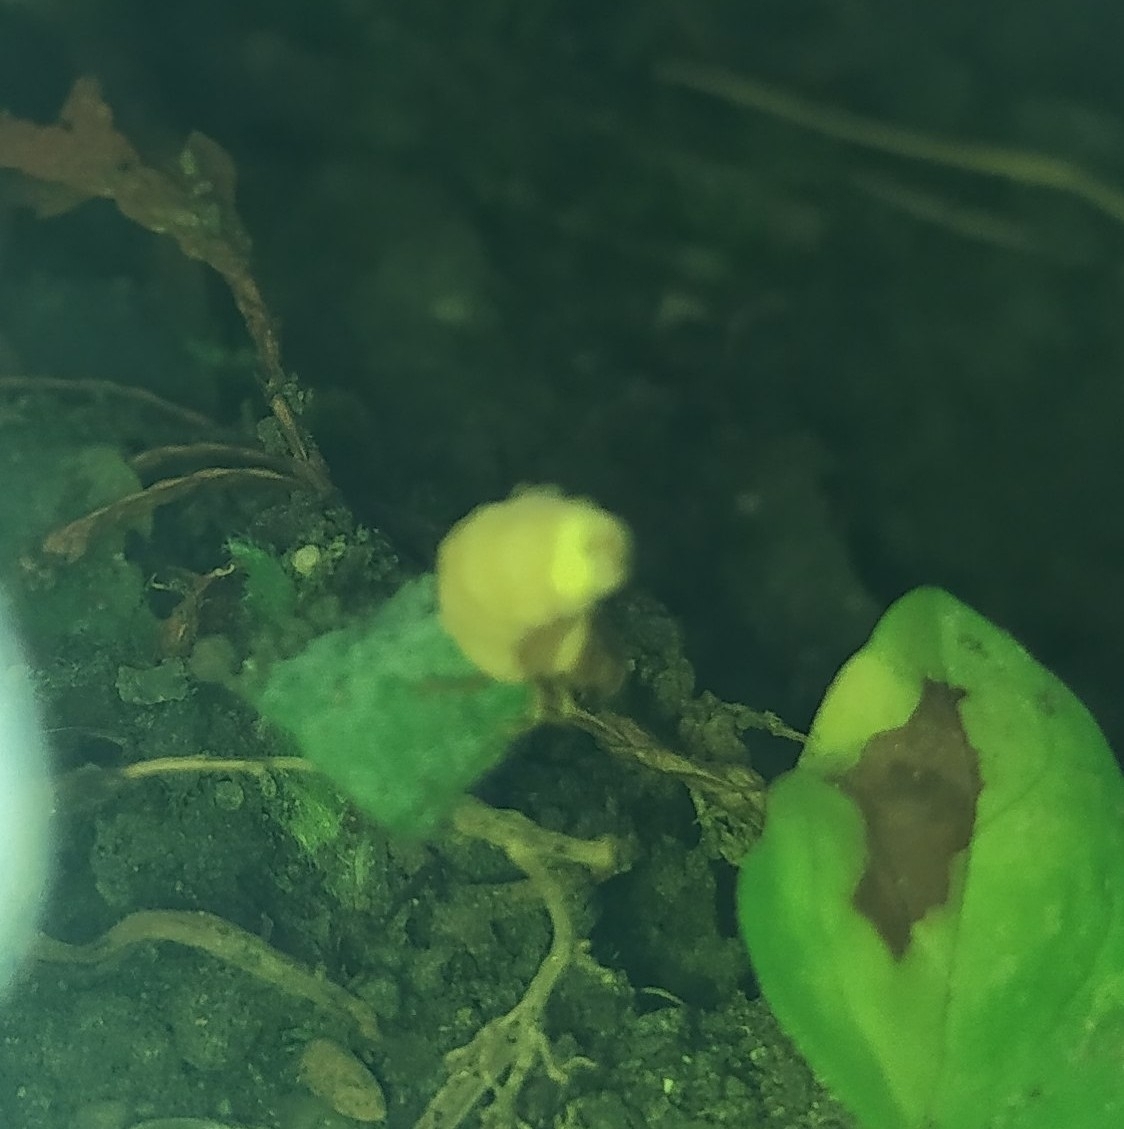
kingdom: Animalia
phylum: Arthropoda
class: Insecta
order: Coleoptera
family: Lampyridae
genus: Lamprohiza
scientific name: Lamprohiza splendidula
